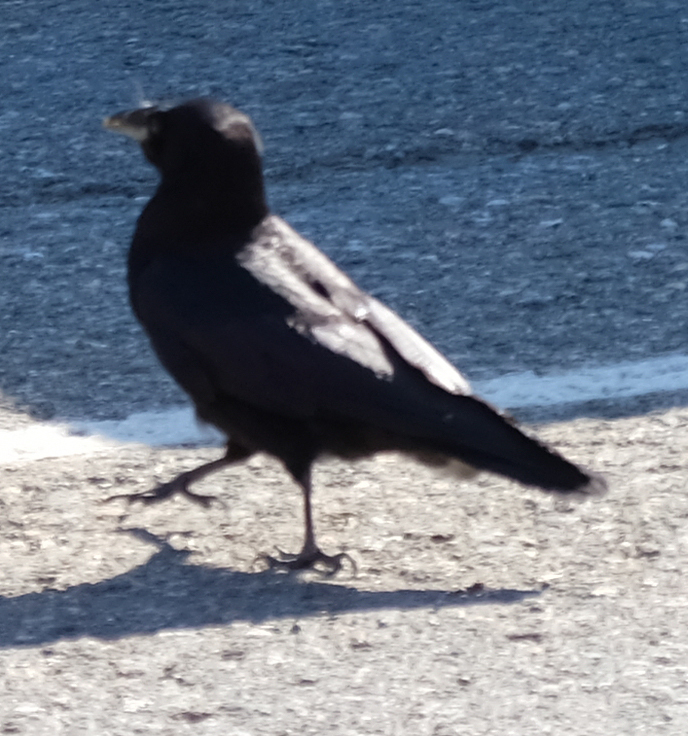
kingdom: Animalia
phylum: Chordata
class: Aves
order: Passeriformes
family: Corvidae
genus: Corvus
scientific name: Corvus brachyrhynchos
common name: American crow
